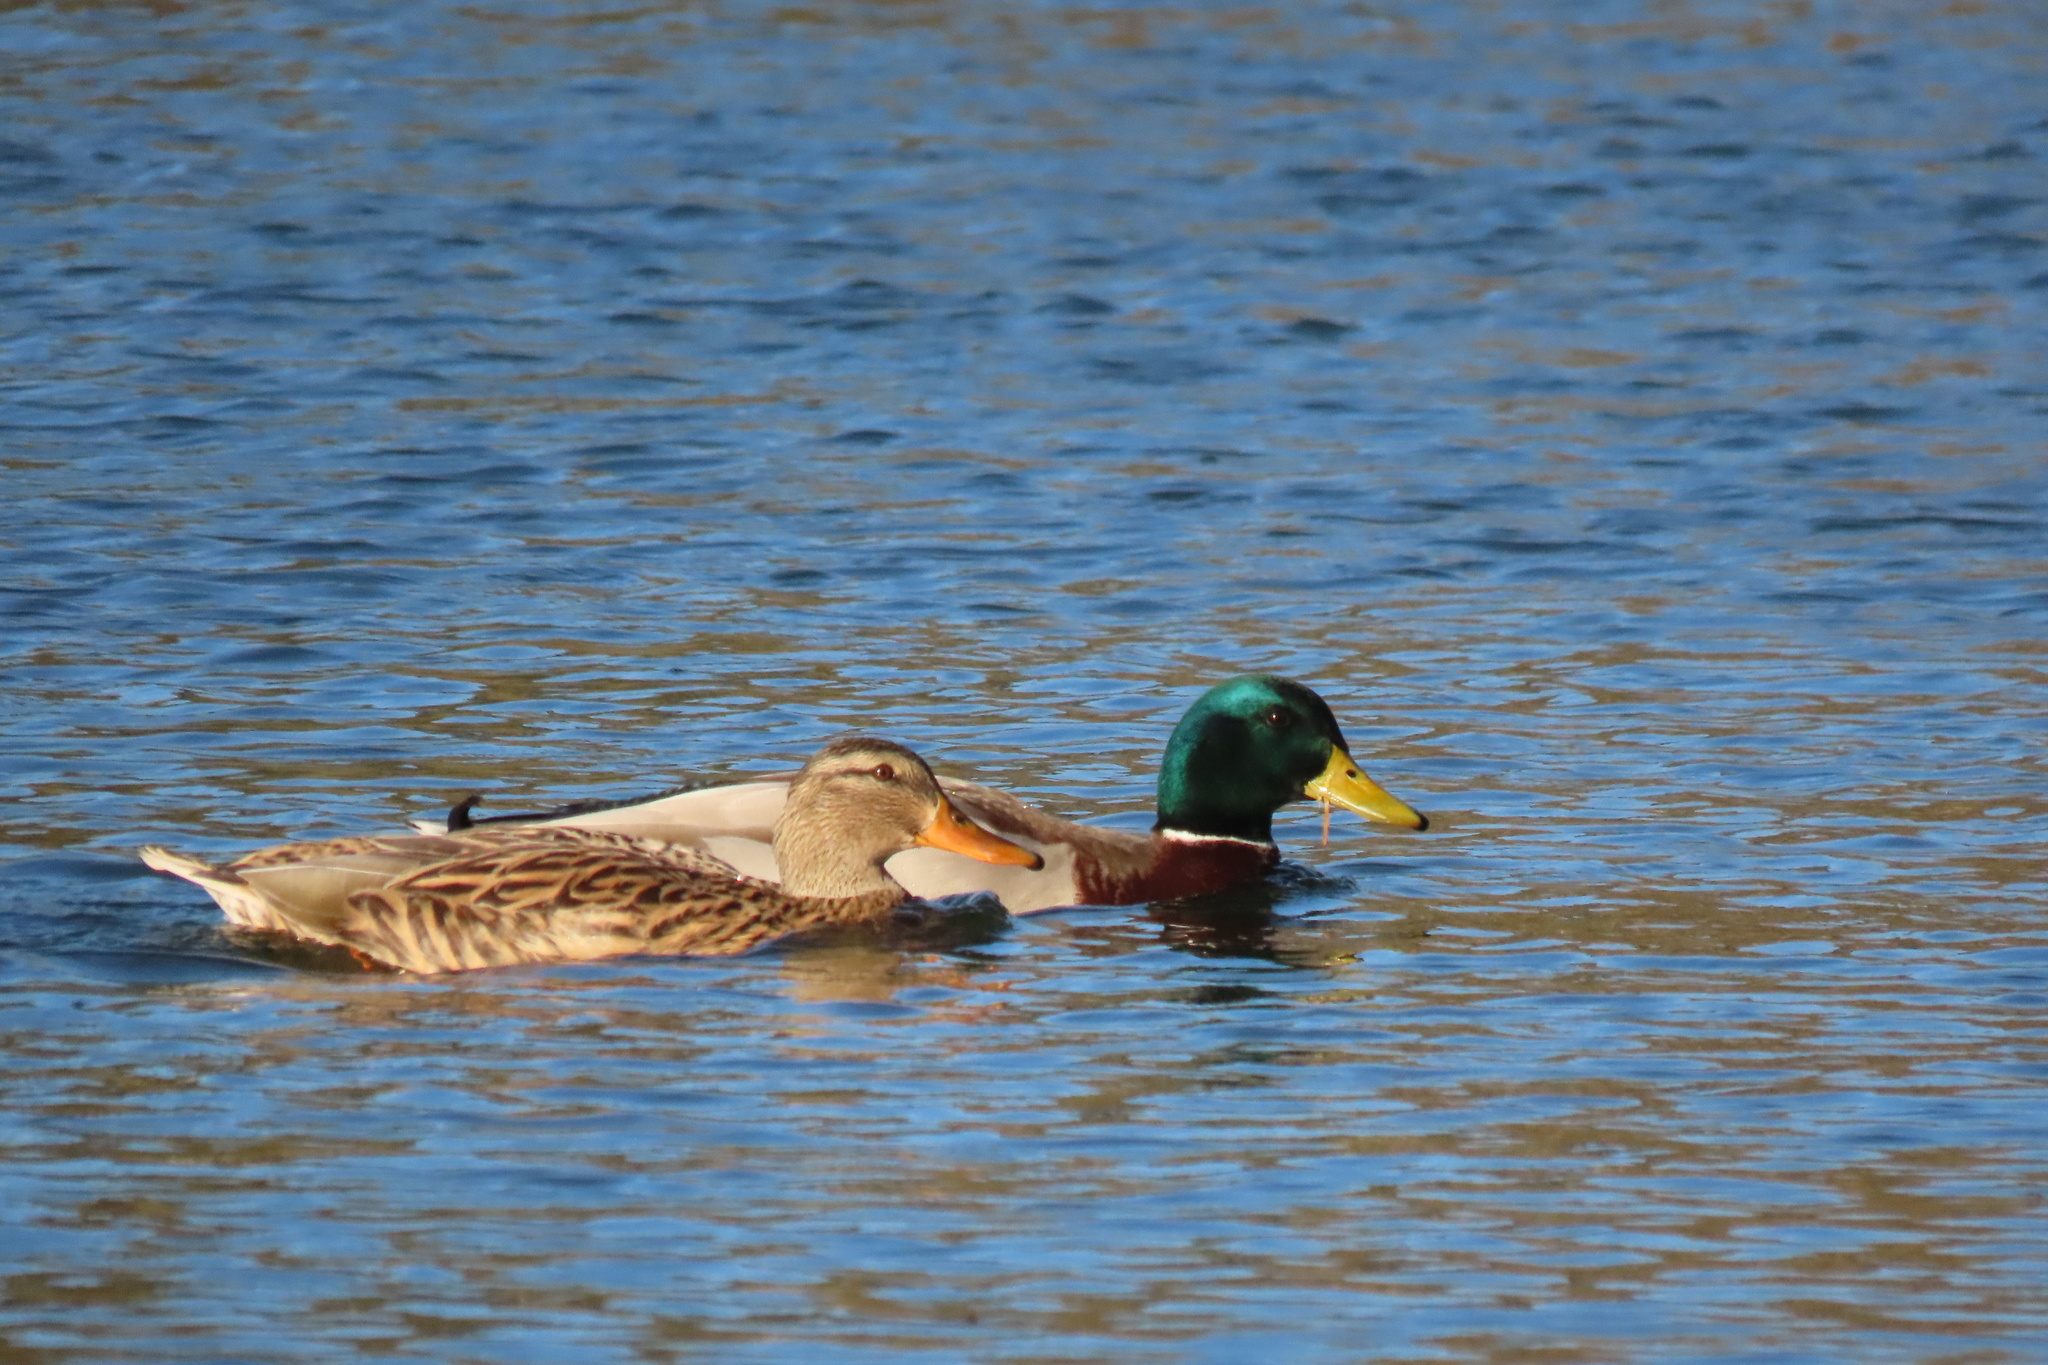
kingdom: Animalia
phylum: Chordata
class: Aves
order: Anseriformes
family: Anatidae
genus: Anas
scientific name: Anas platyrhynchos
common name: Mallard
